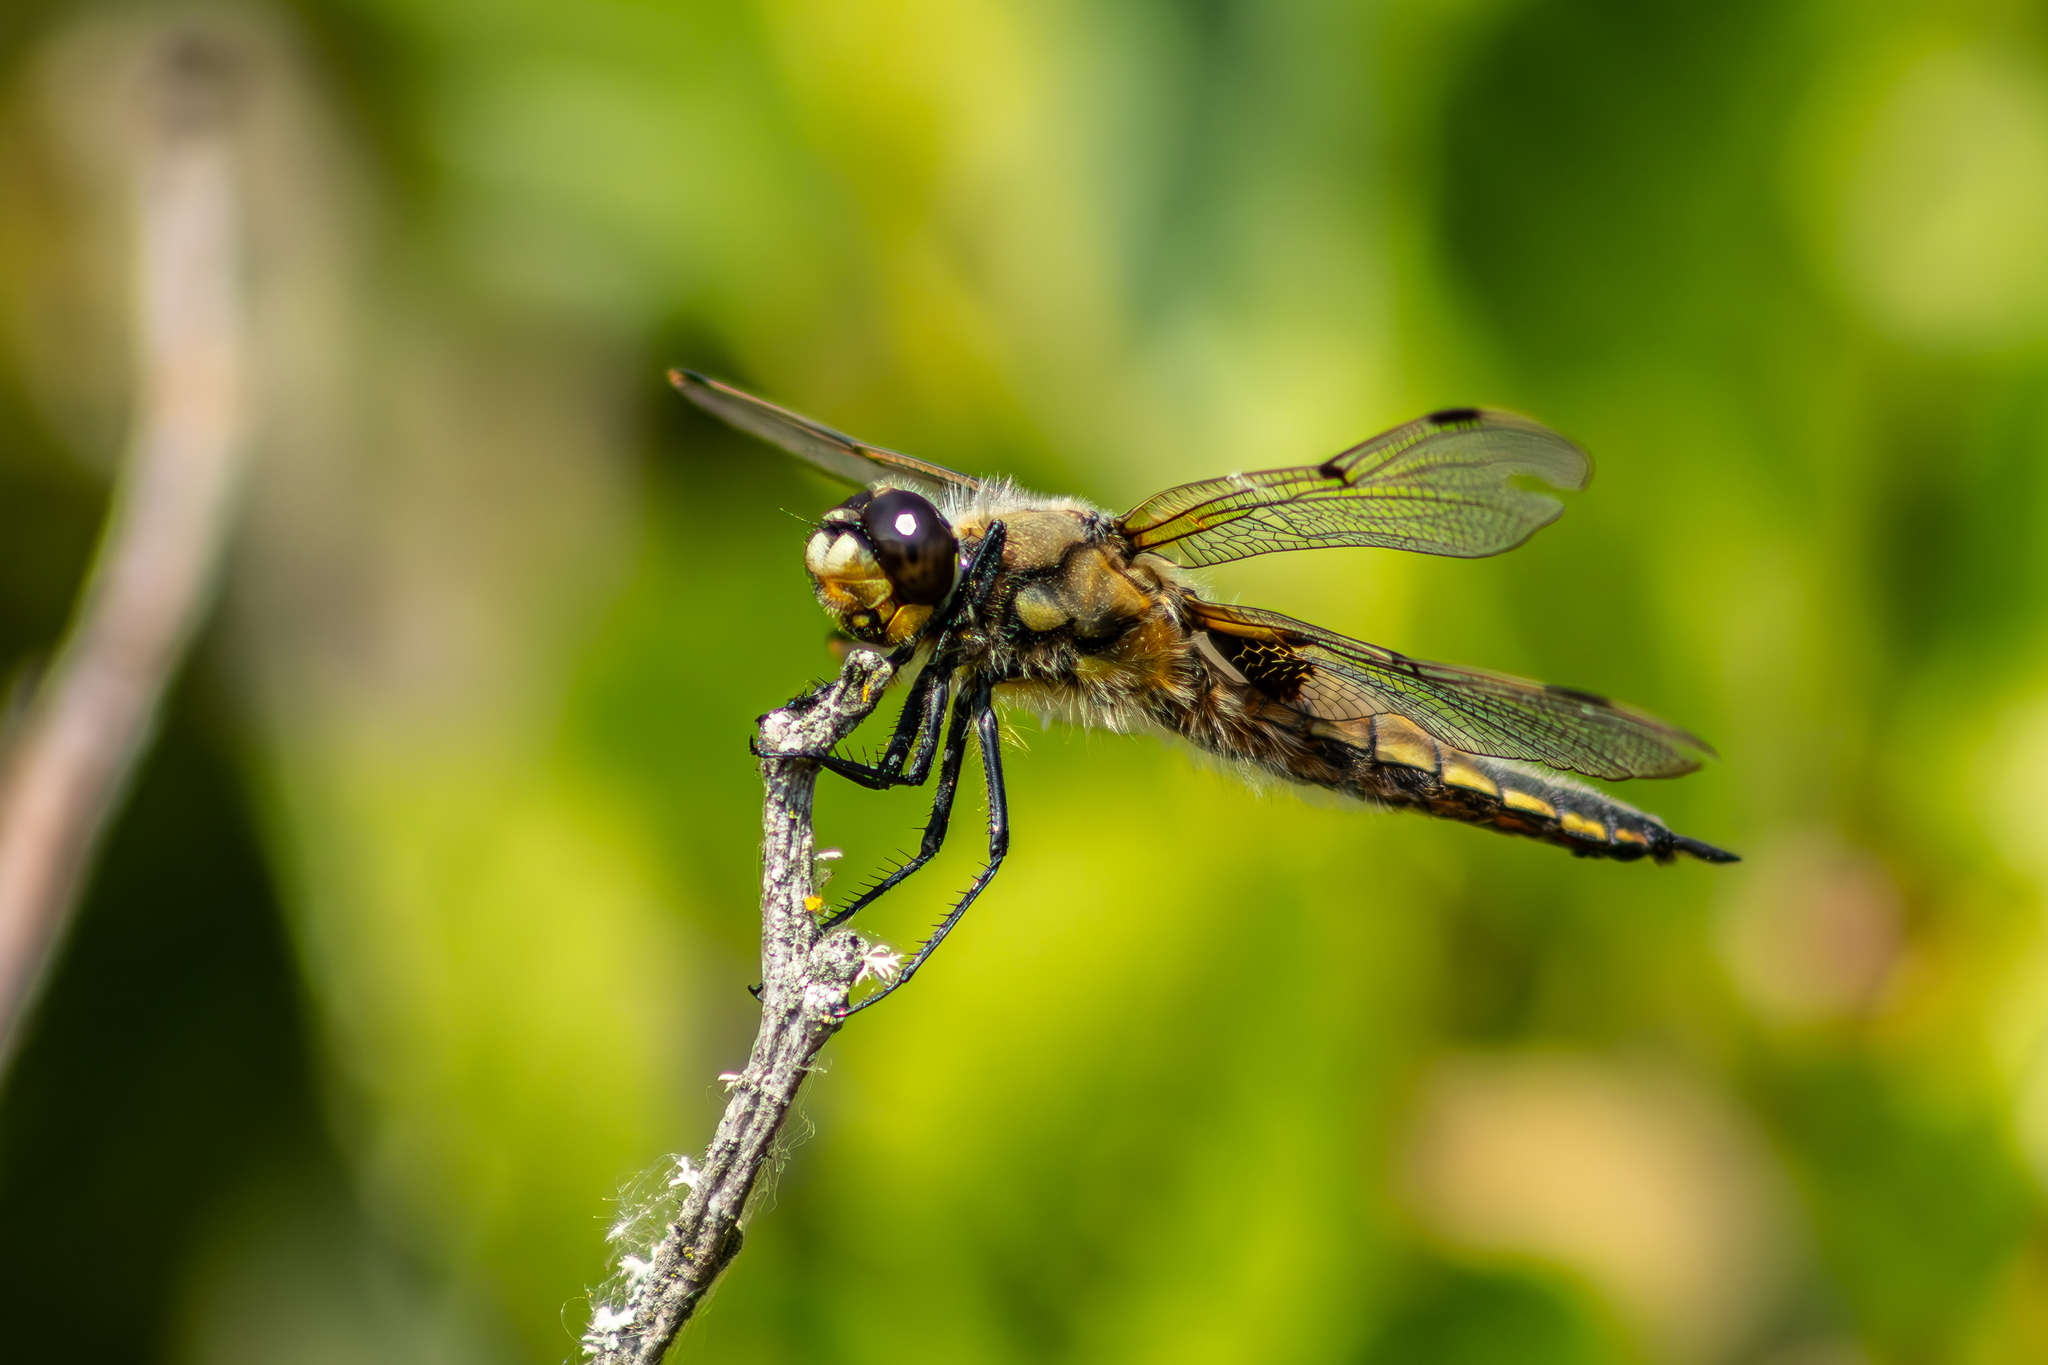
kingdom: Animalia
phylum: Arthropoda
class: Insecta
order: Odonata
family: Libellulidae
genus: Libellula
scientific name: Libellula quadrimaculata
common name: Four-spotted chaser
